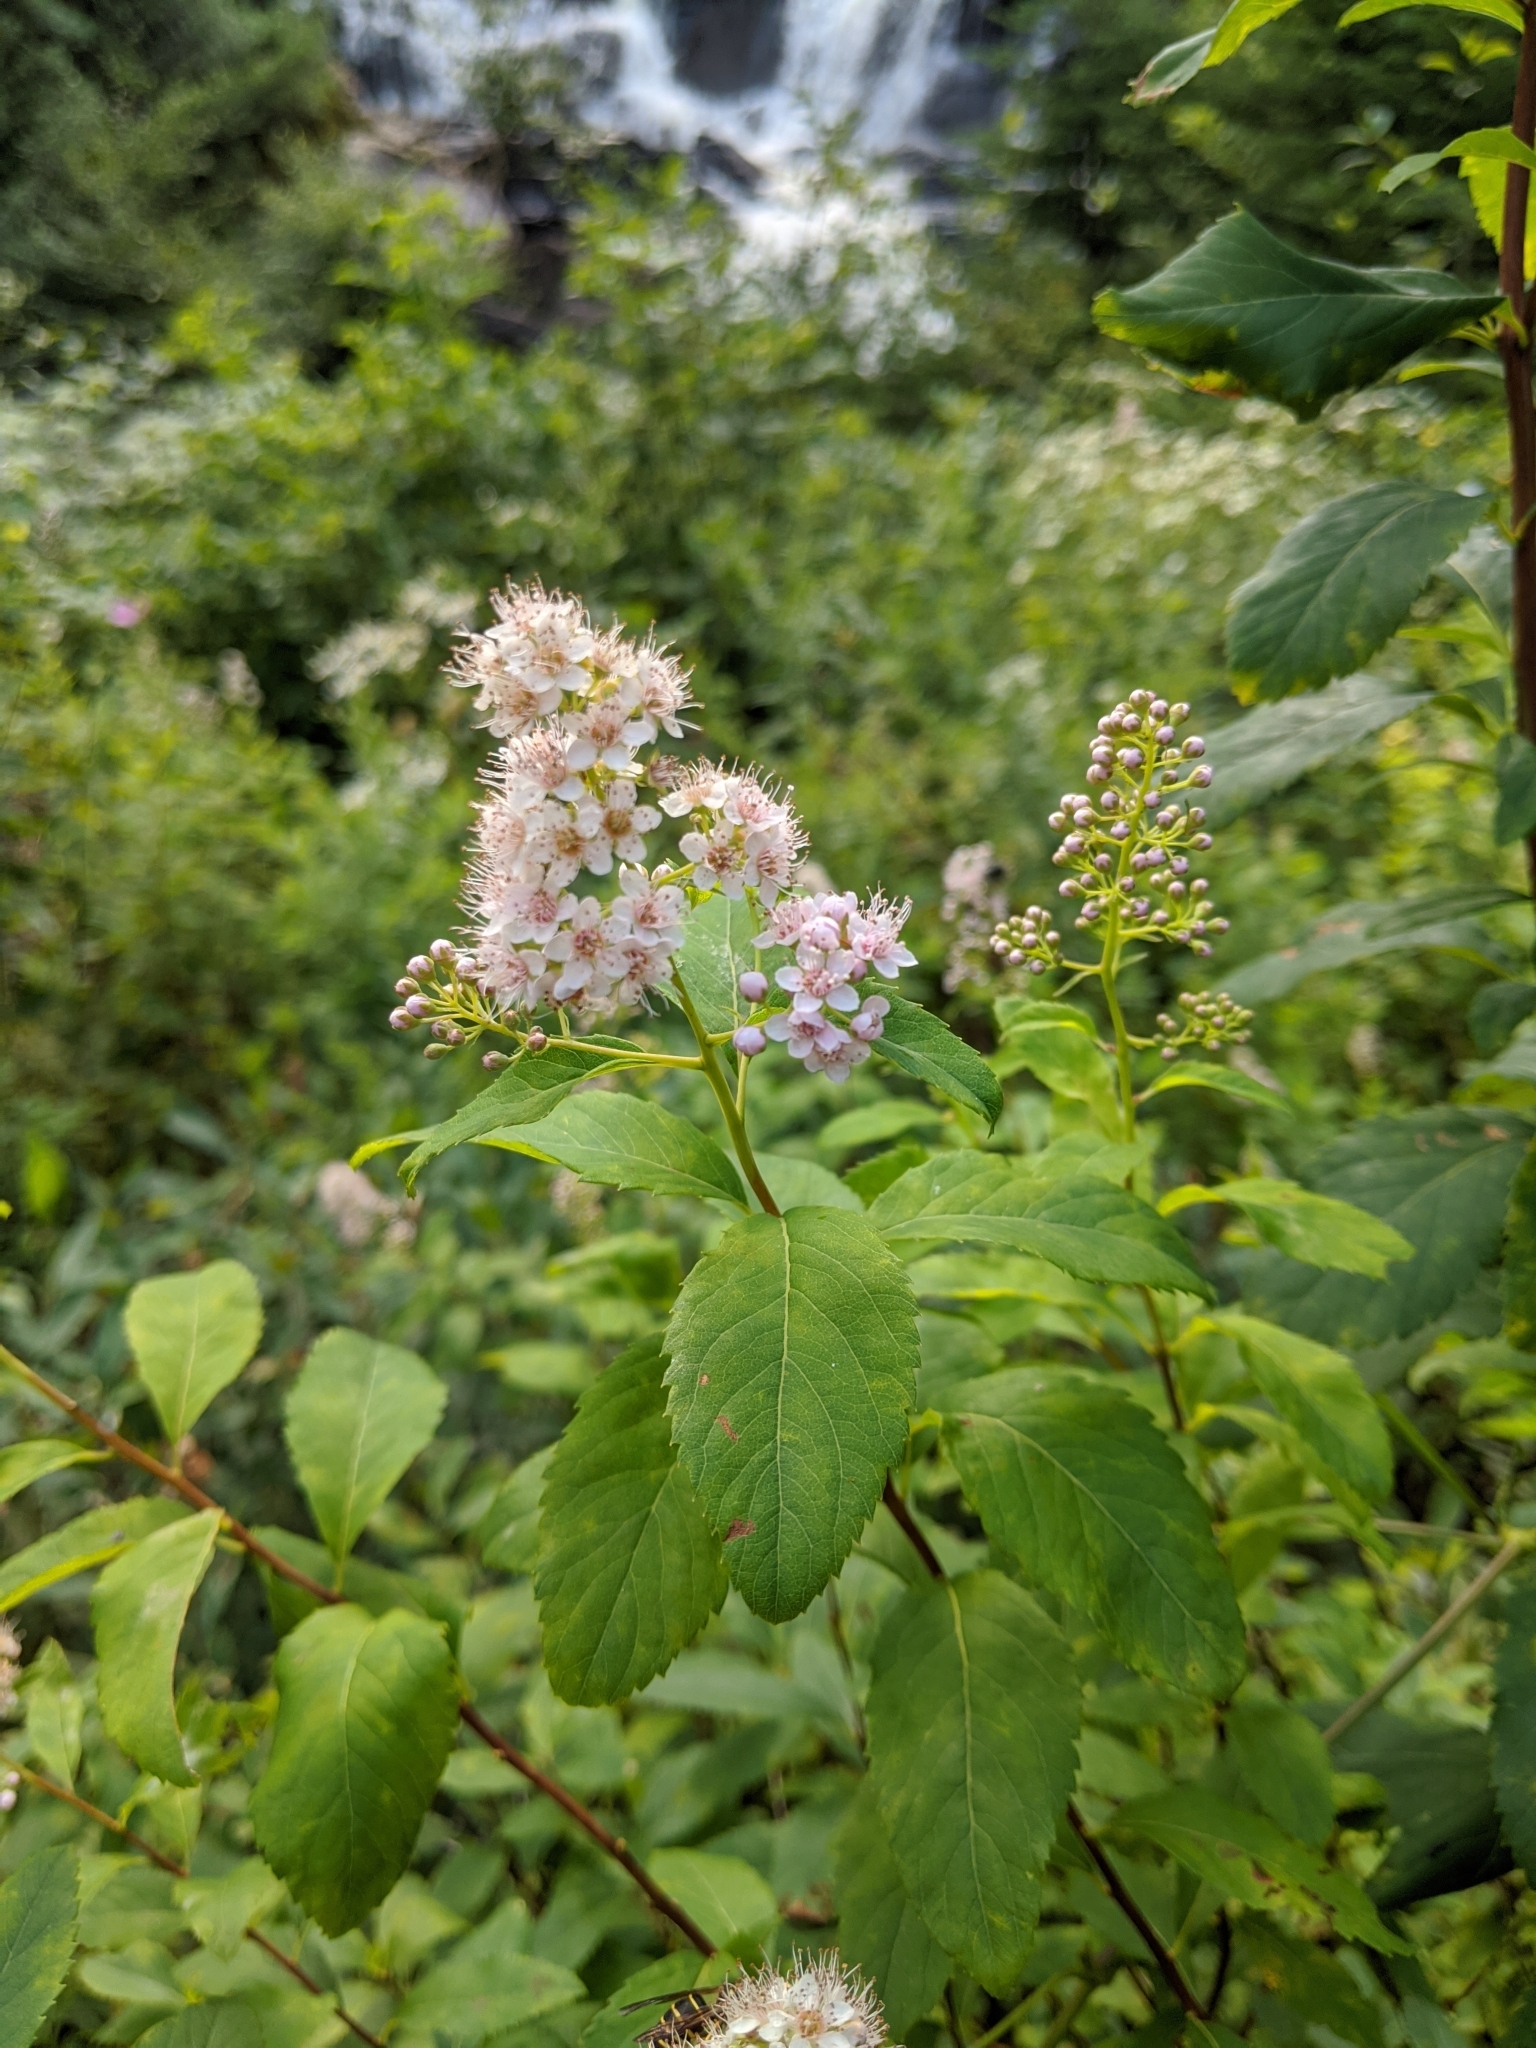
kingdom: Plantae
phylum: Tracheophyta
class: Magnoliopsida
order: Rosales
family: Rosaceae
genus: Spiraea
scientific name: Spiraea alba
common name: Pale bridewort
